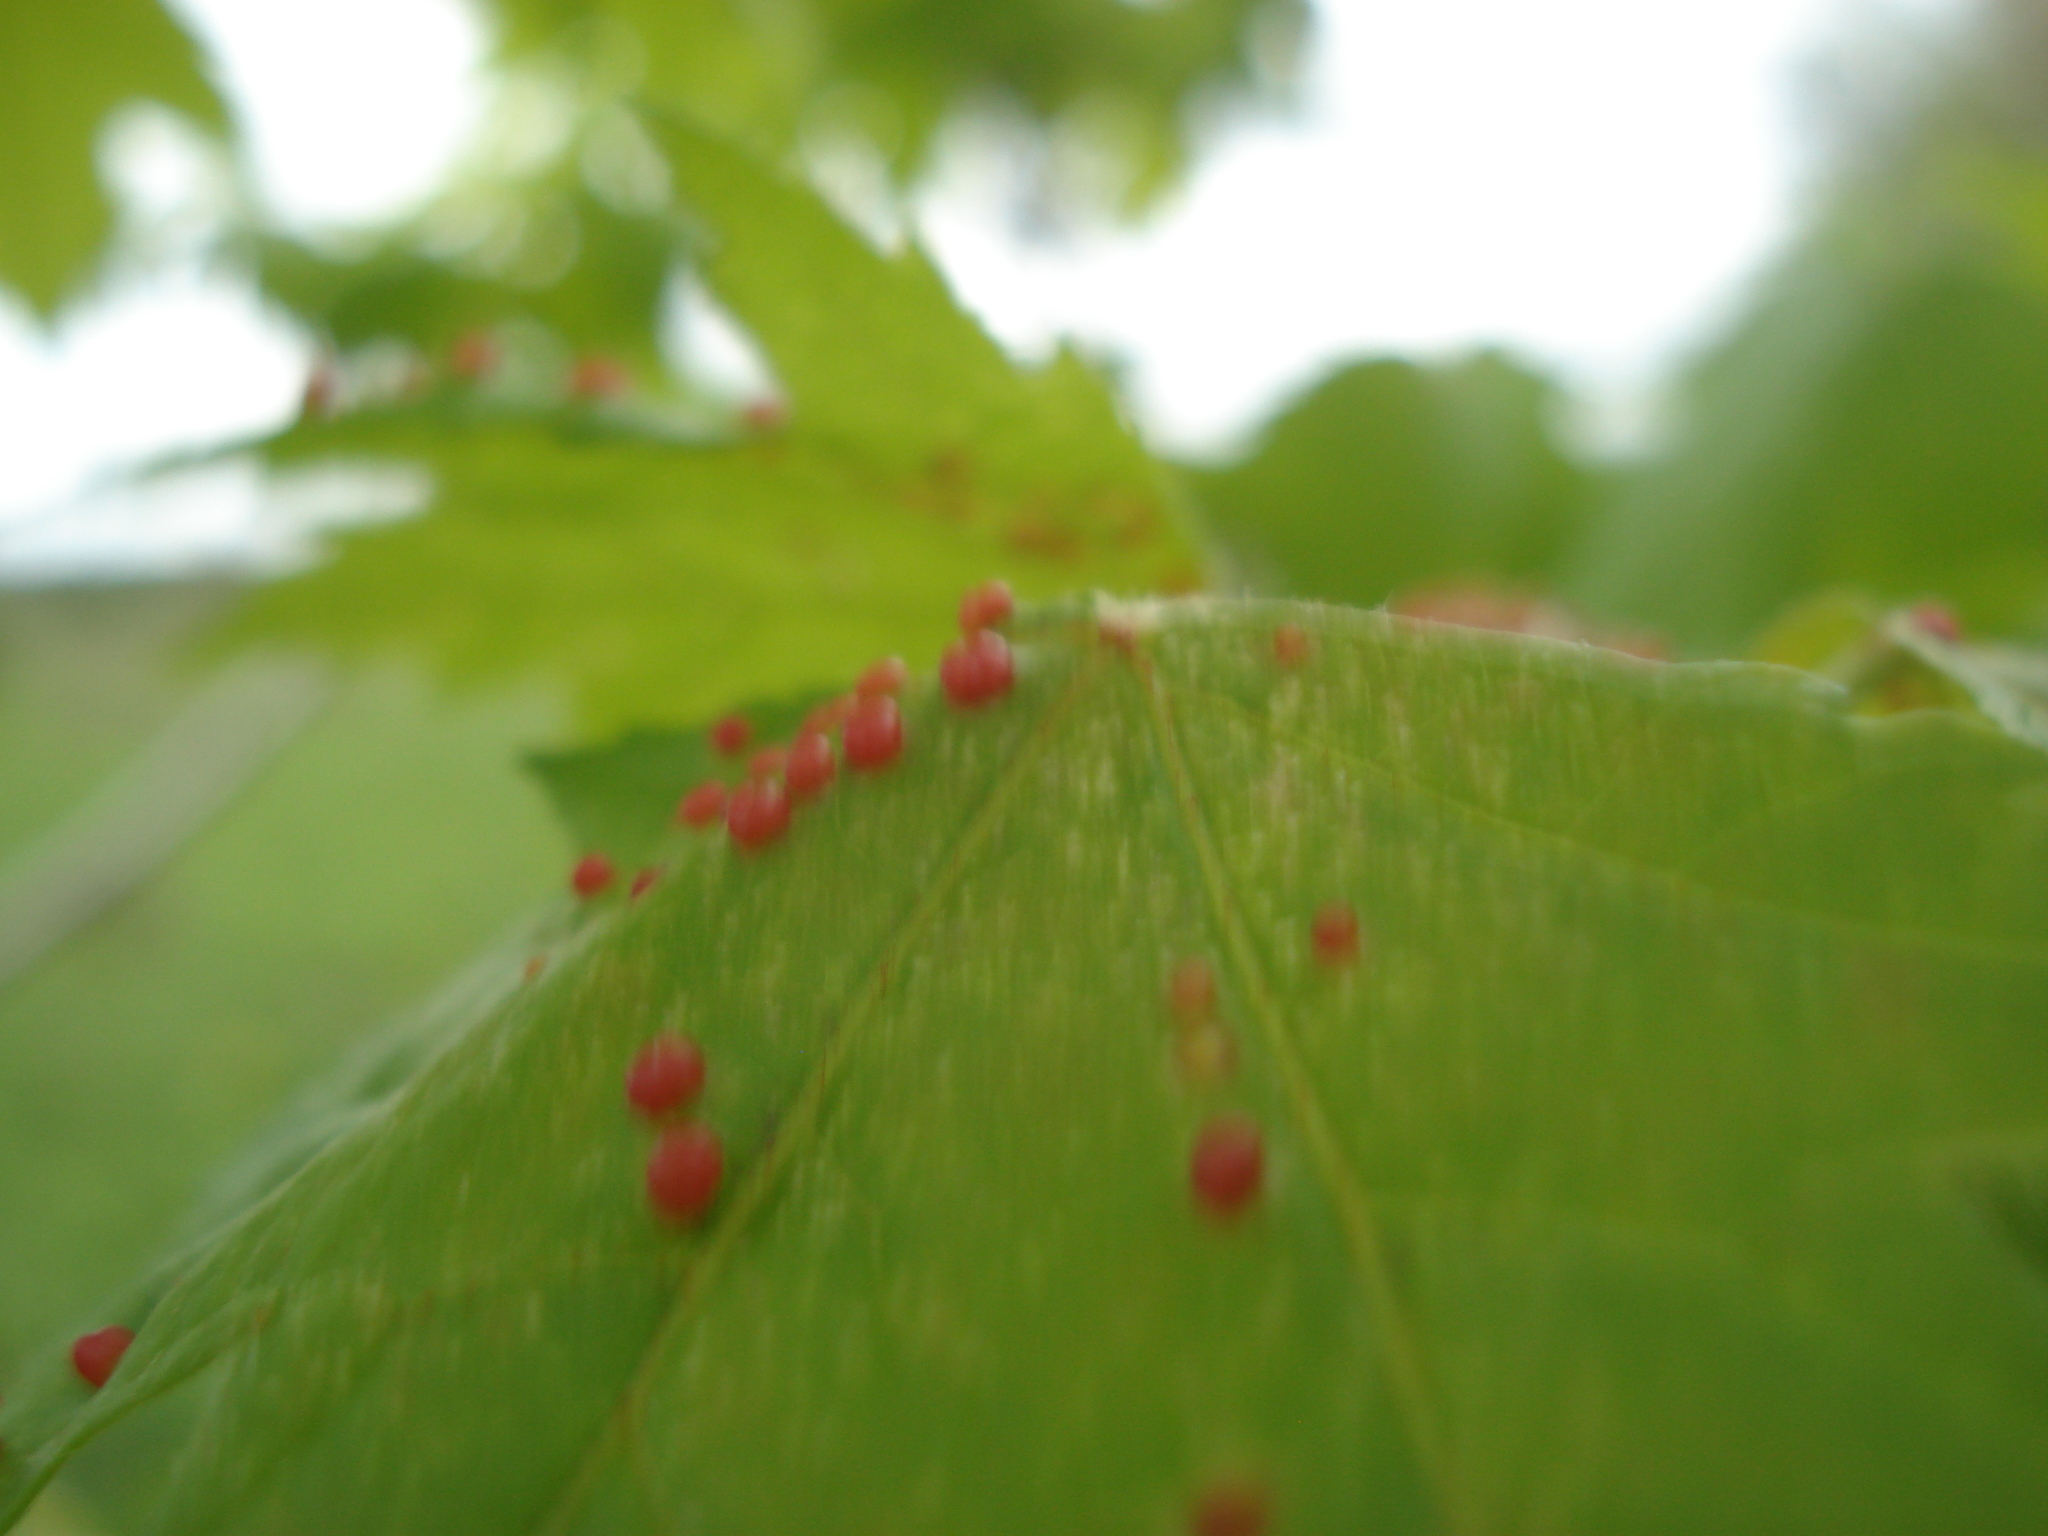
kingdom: Animalia
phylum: Arthropoda
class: Arachnida
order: Trombidiformes
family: Eriophyidae
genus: Vasates
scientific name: Vasates quadripedes
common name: Maple bladder gall mite
